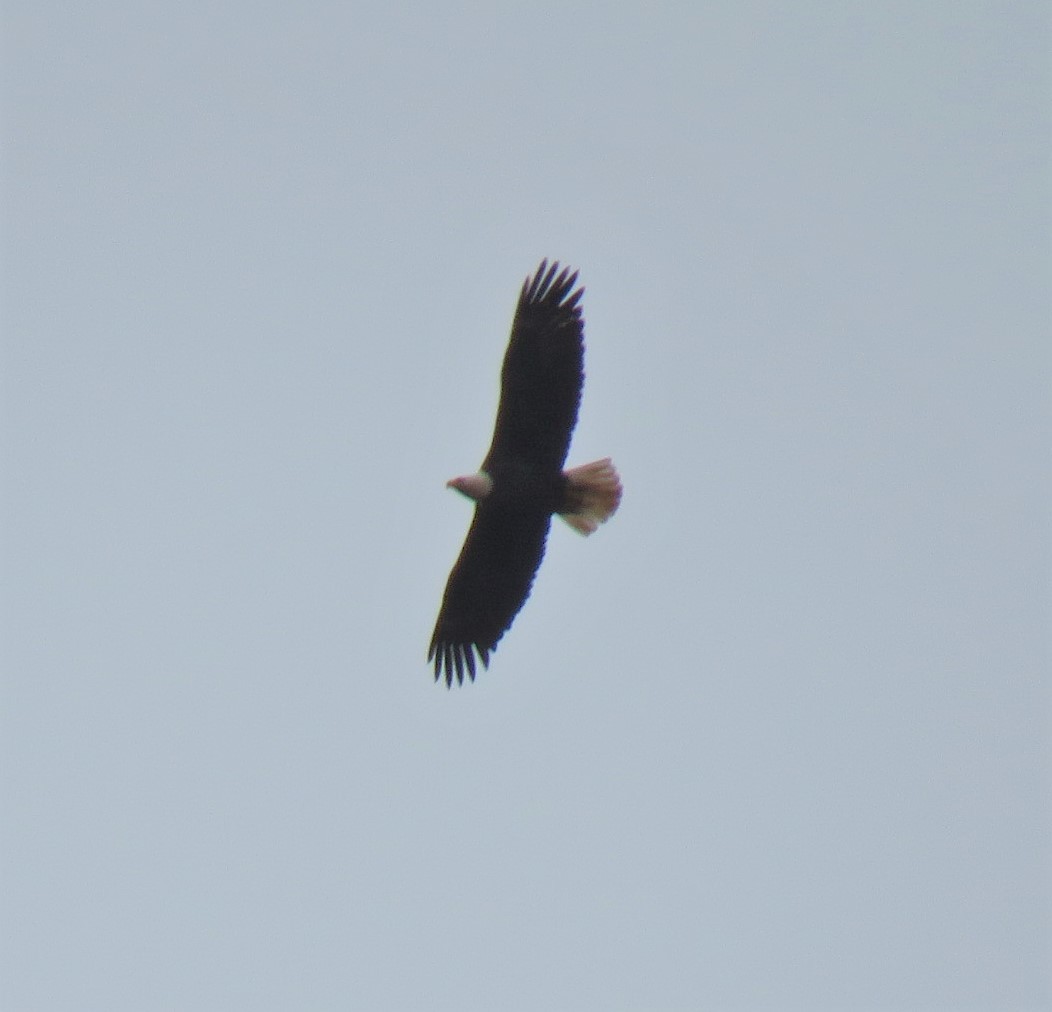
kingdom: Animalia
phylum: Chordata
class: Aves
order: Accipitriformes
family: Accipitridae
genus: Haliaeetus
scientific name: Haliaeetus leucocephalus
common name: Bald eagle
